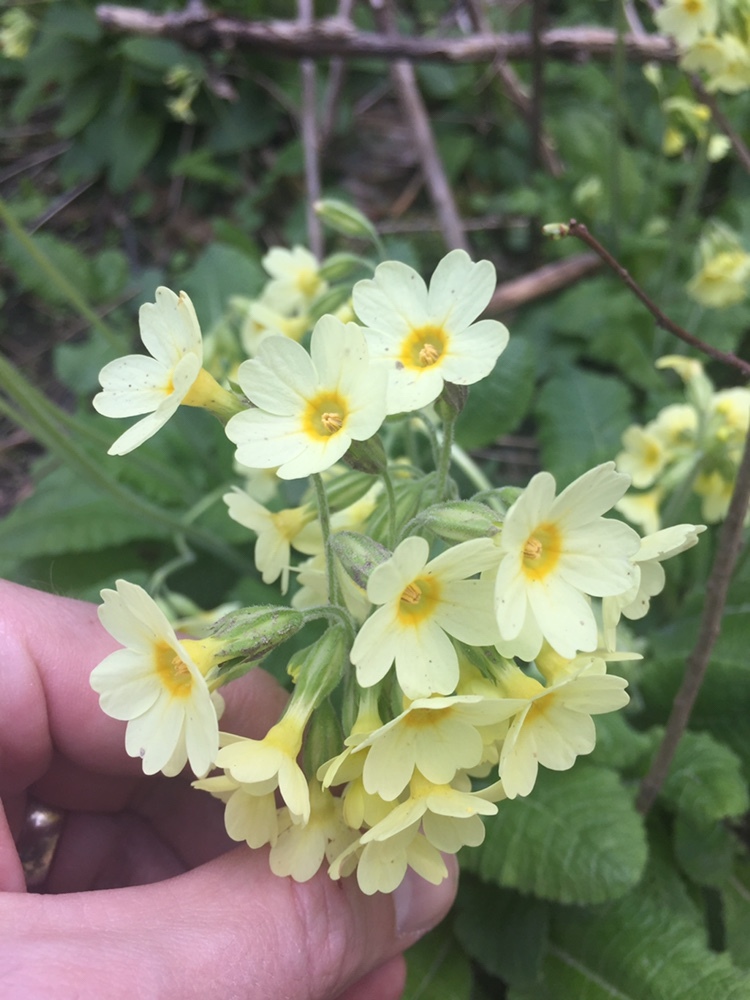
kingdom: Plantae
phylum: Tracheophyta
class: Magnoliopsida
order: Ericales
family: Primulaceae
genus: Primula
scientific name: Primula elatior
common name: Oxlip
